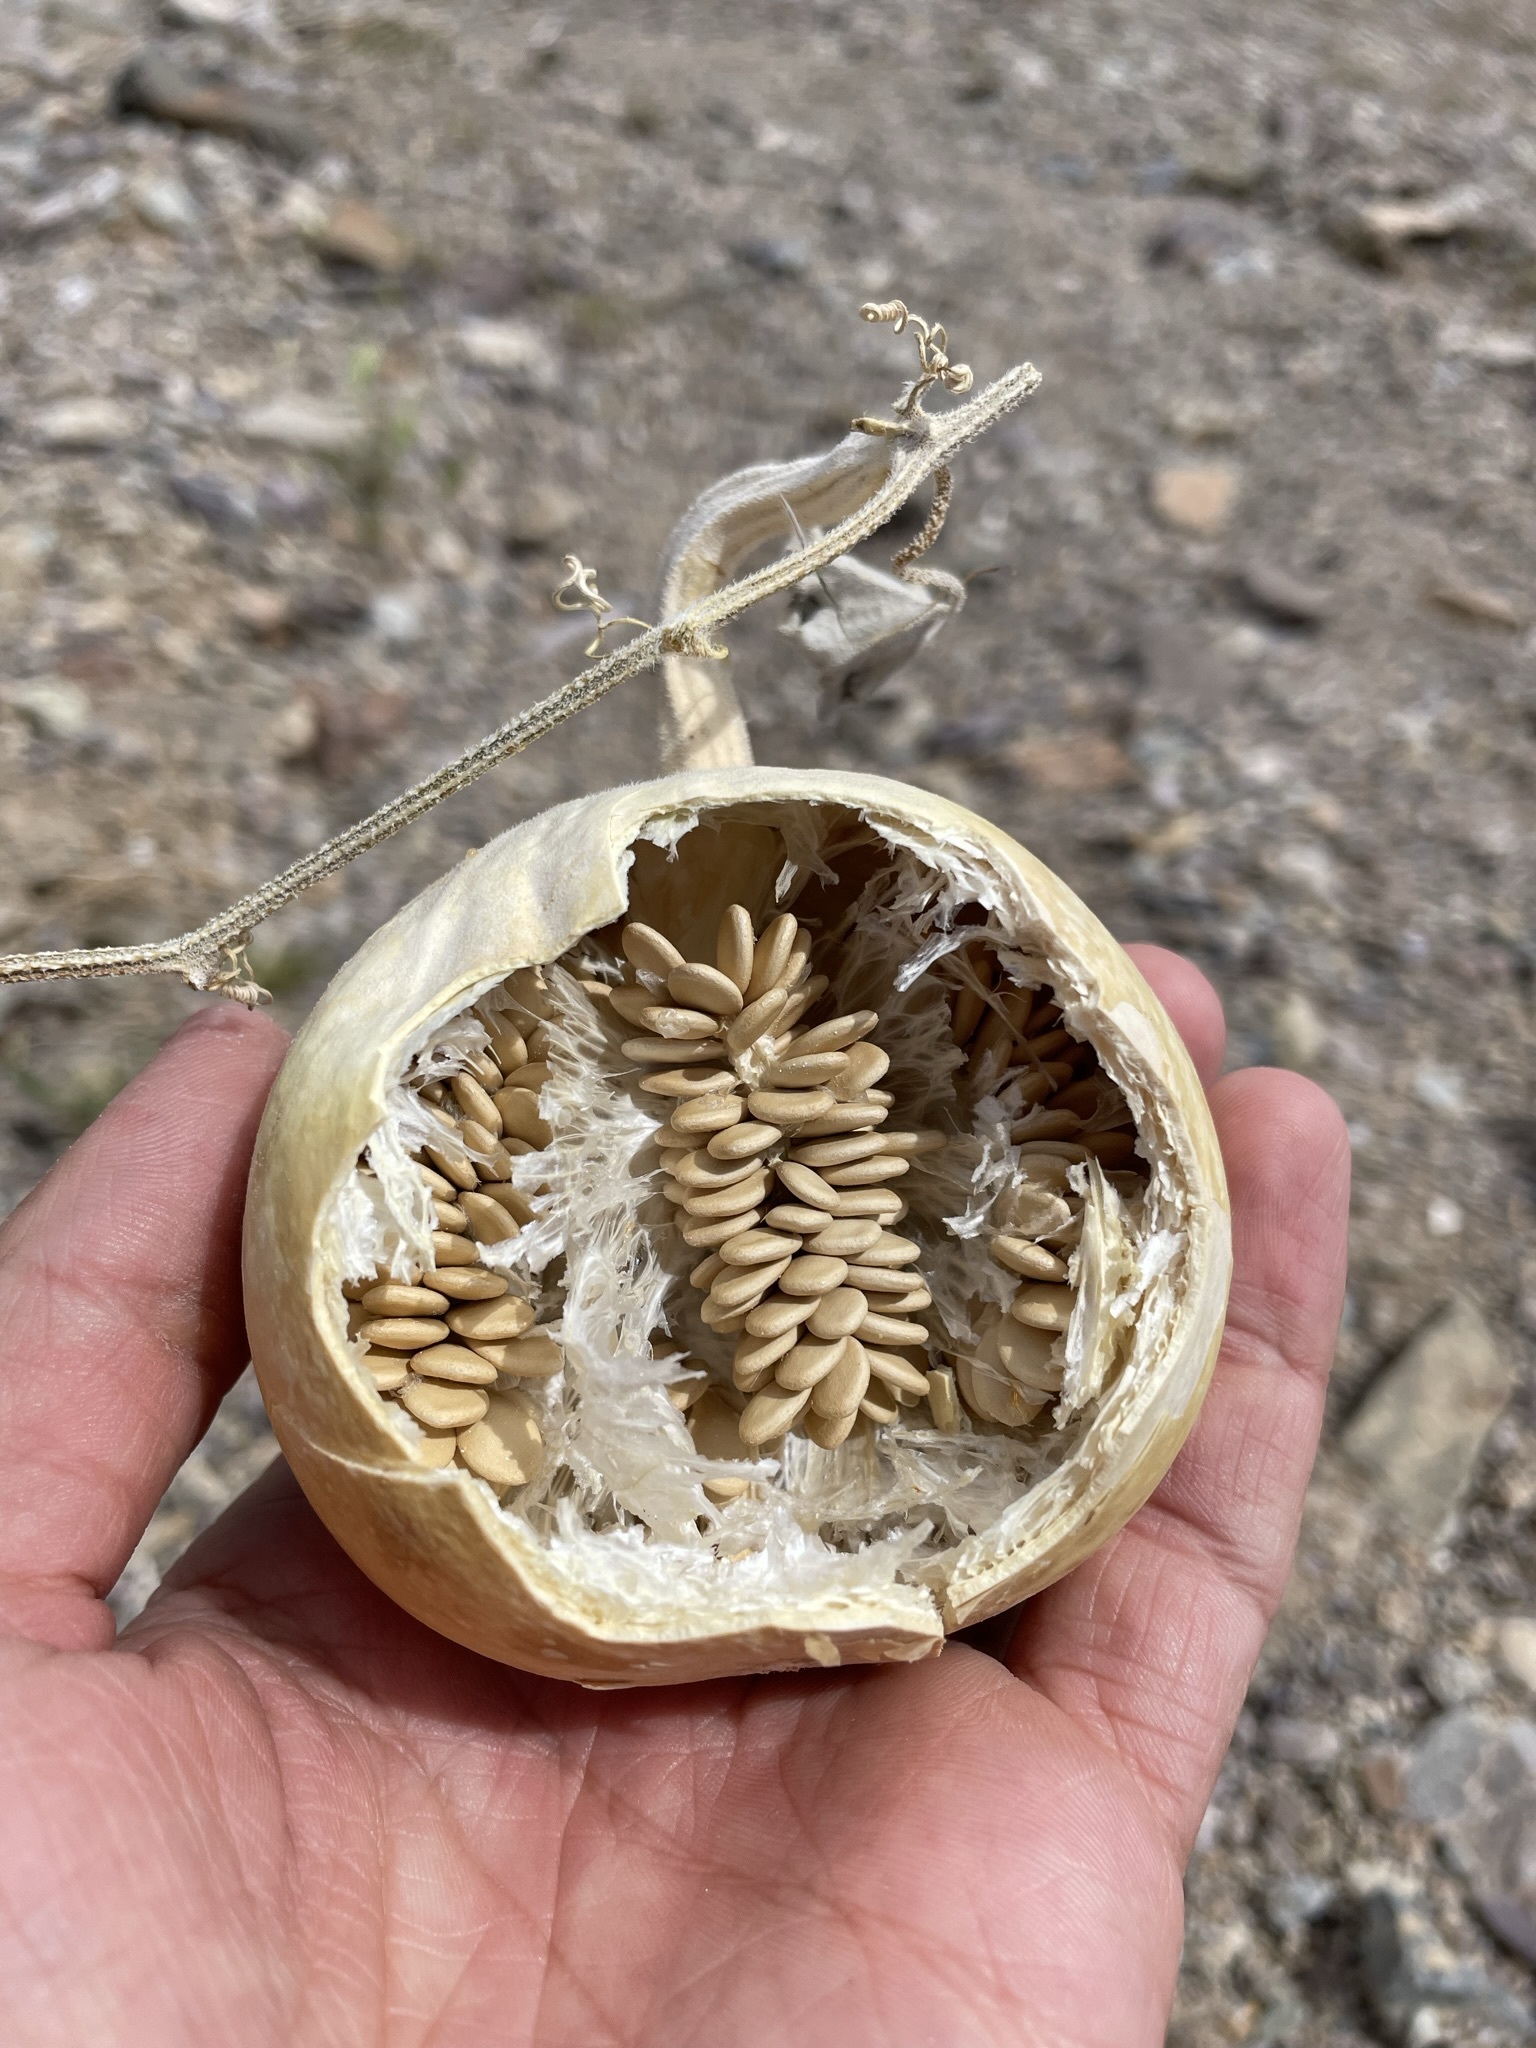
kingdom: Plantae
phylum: Tracheophyta
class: Magnoliopsida
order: Cucurbitales
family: Cucurbitaceae
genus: Cucurbita
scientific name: Cucurbita palmata
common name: Coyote-melon
